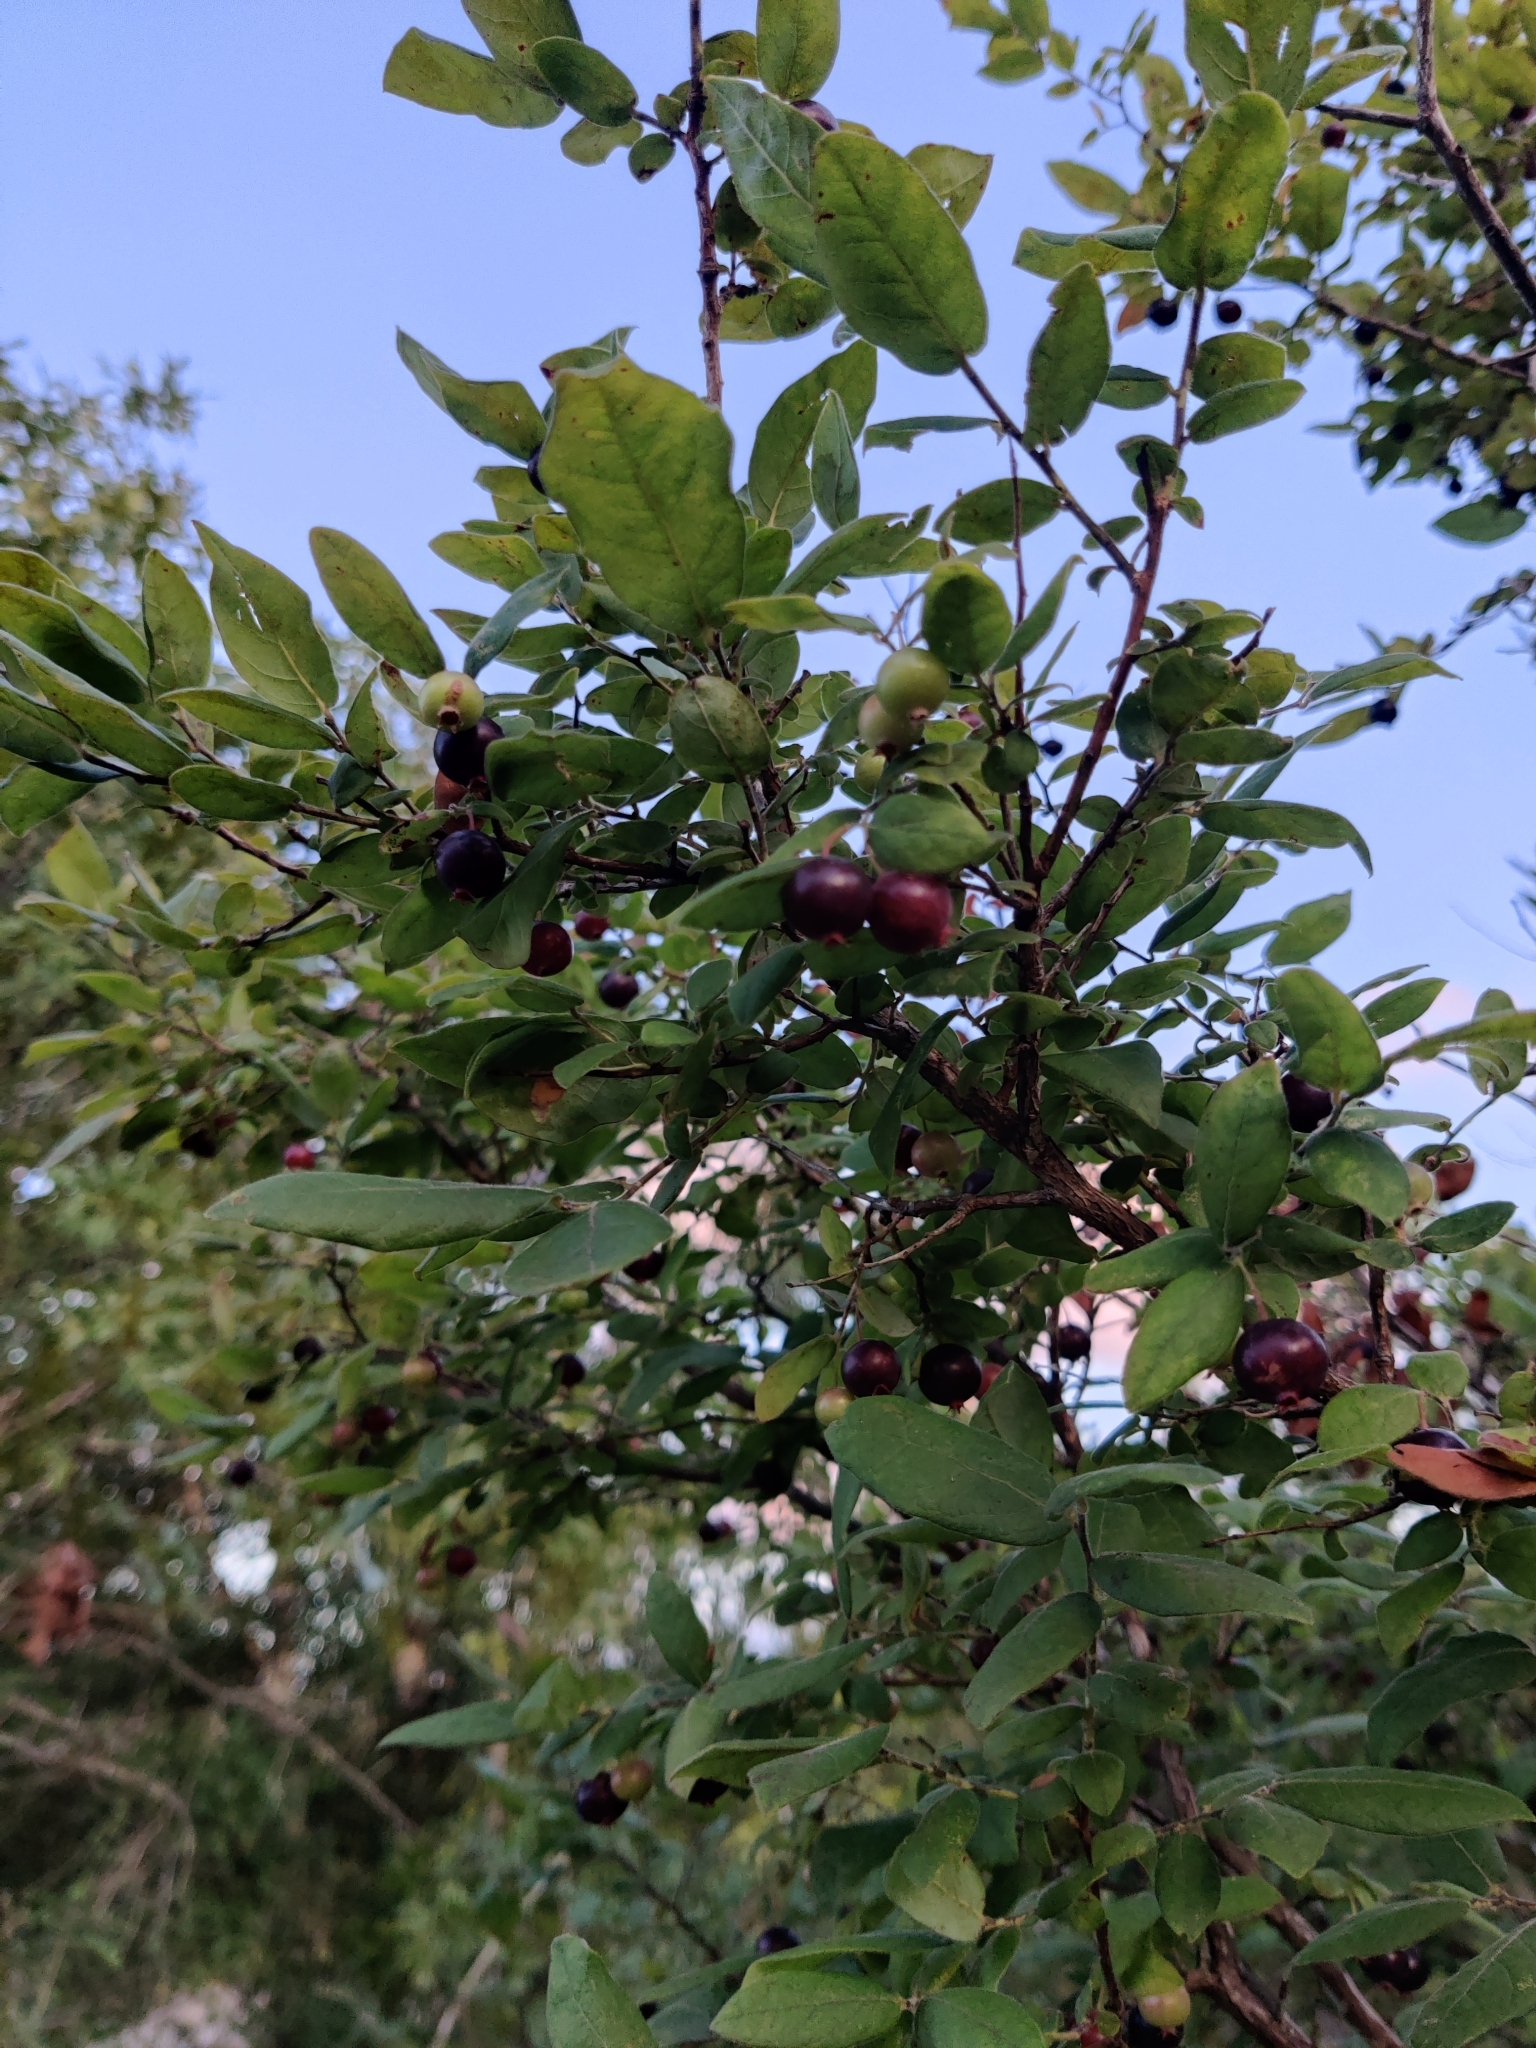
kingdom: Plantae
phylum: Tracheophyta
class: Magnoliopsida
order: Ericales
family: Ericaceae
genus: Vaccinium
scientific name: Vaccinium stamineum
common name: Deerberry
